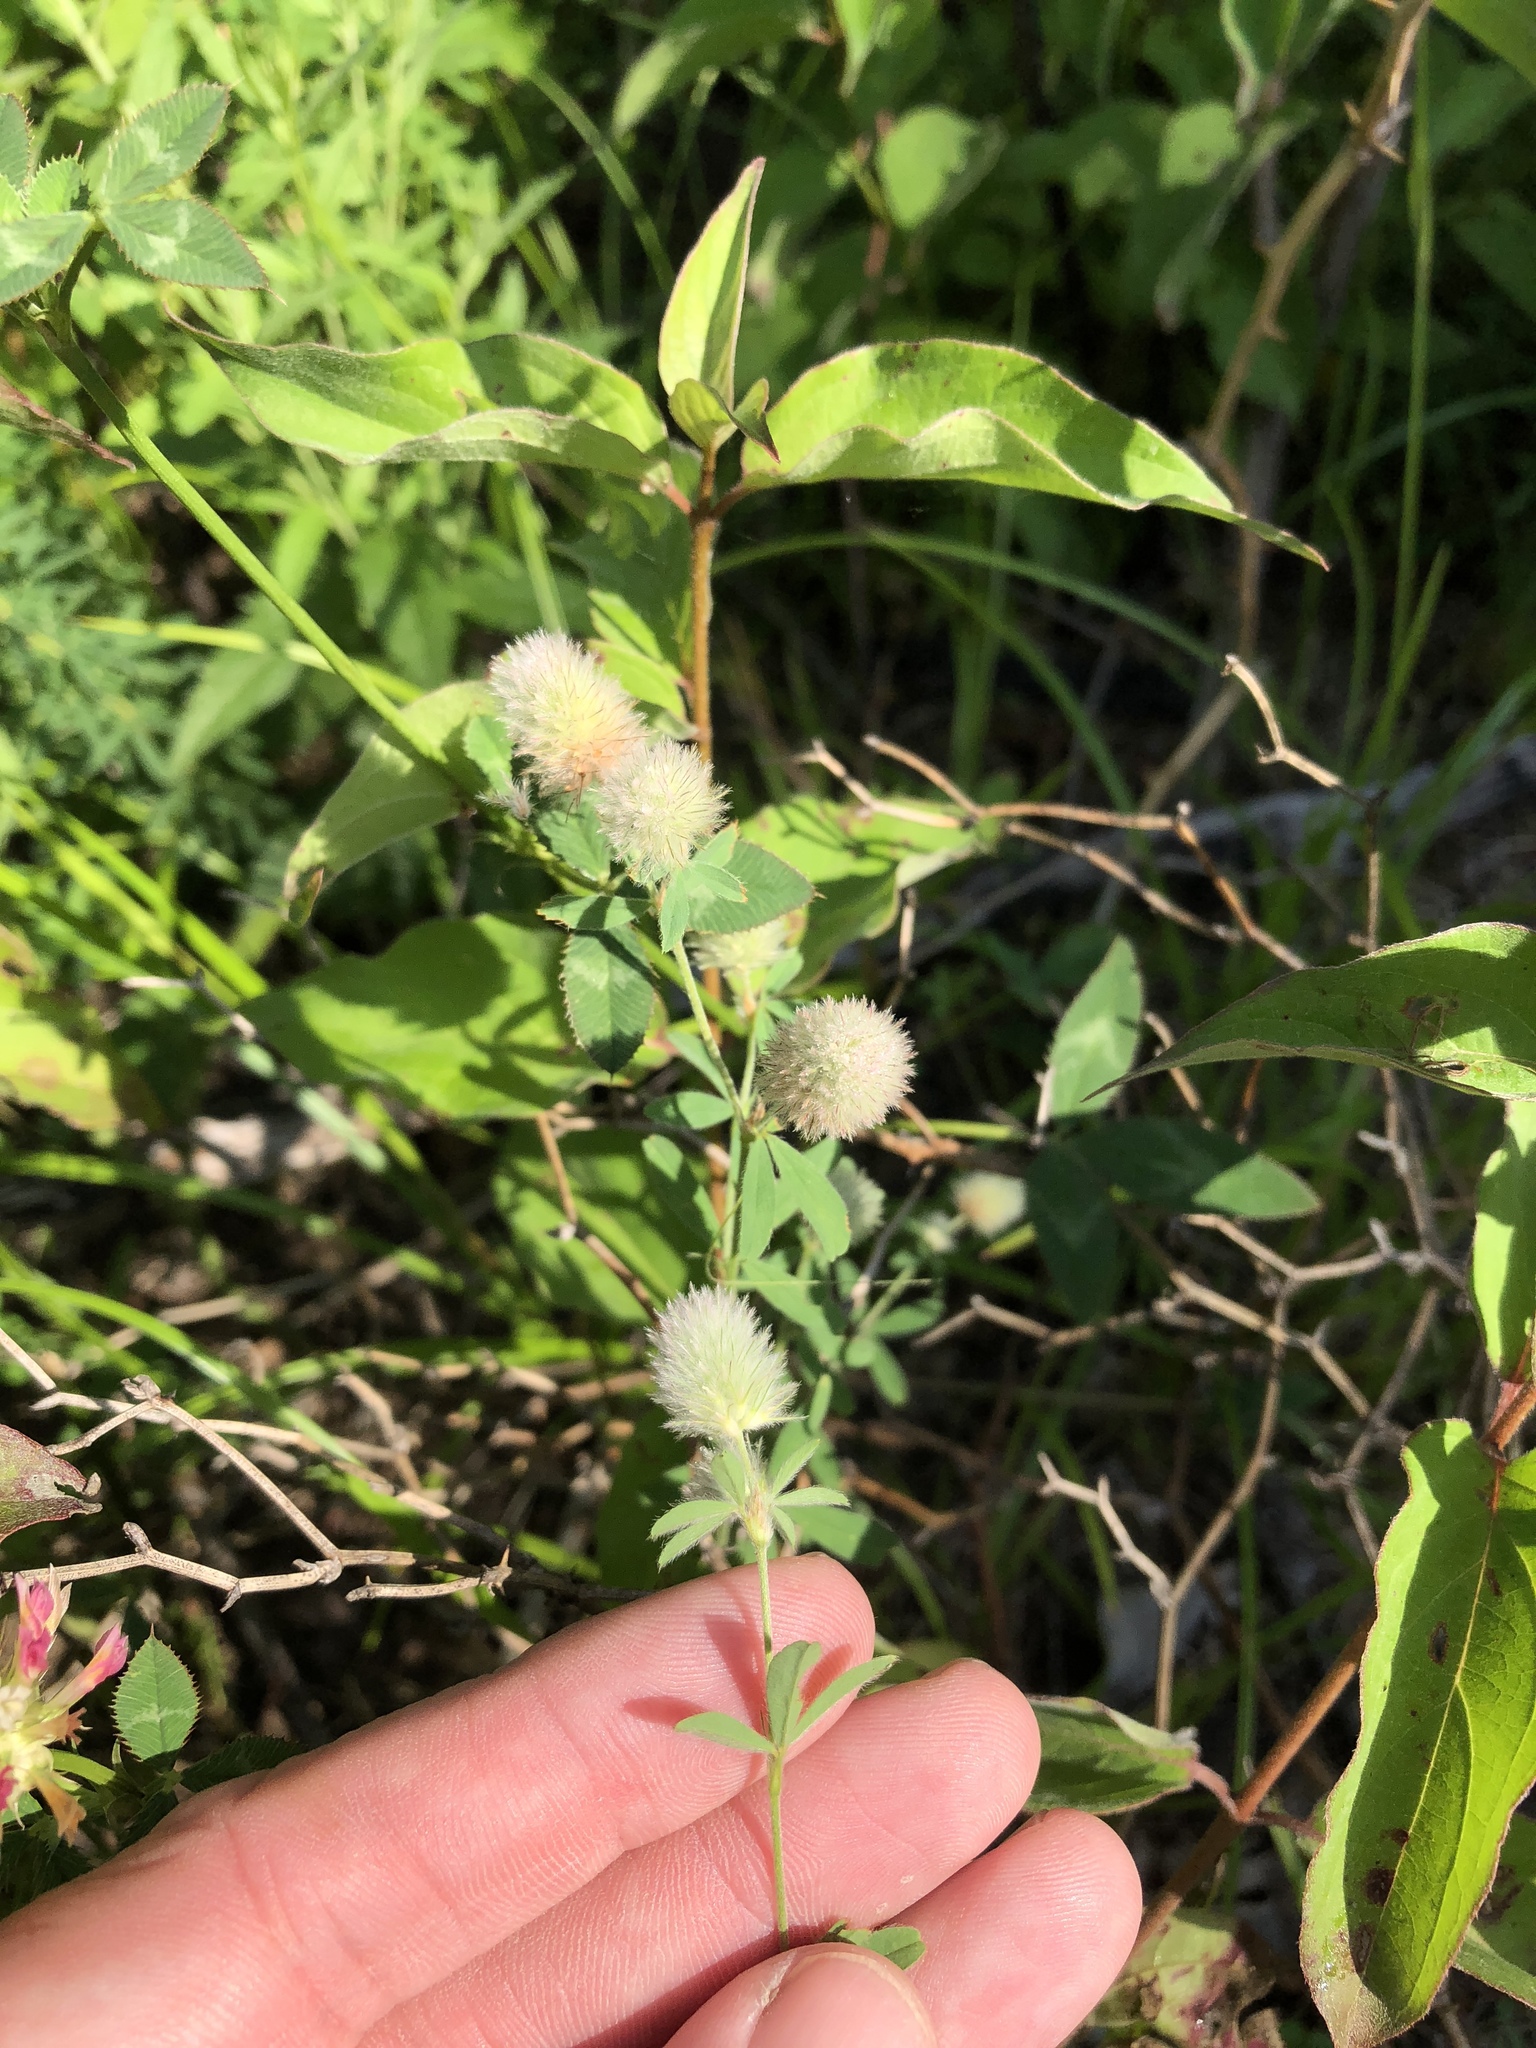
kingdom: Plantae
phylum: Tracheophyta
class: Magnoliopsida
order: Fabales
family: Fabaceae
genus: Trifolium
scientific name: Trifolium arvense
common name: Hare's-foot clover
